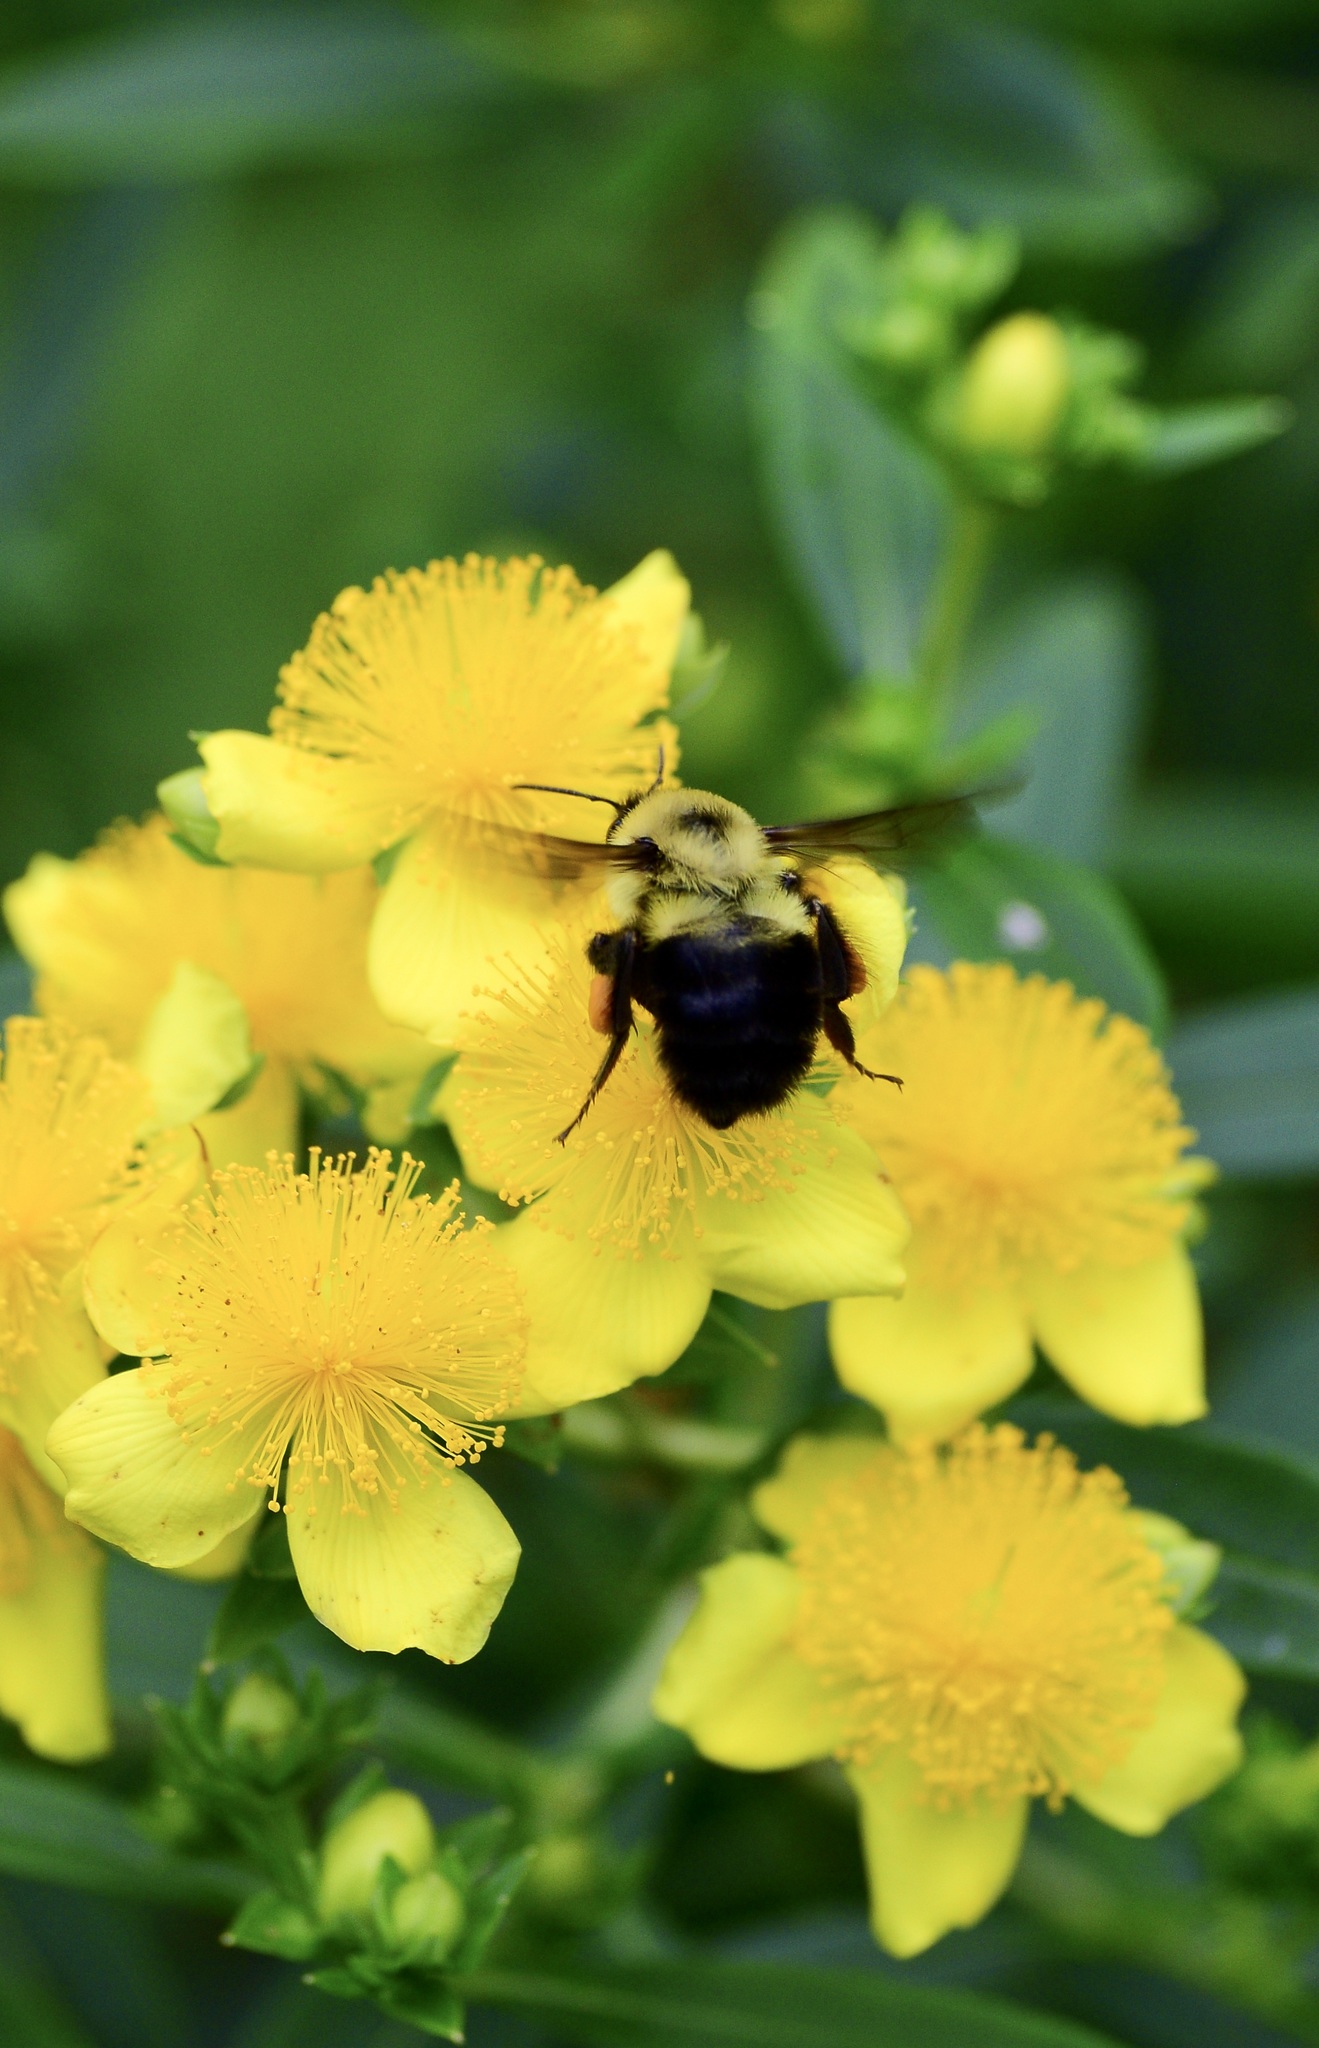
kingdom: Animalia
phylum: Arthropoda
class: Insecta
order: Hymenoptera
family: Apidae
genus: Bombus
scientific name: Bombus bimaculatus
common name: Two-spotted bumble bee
